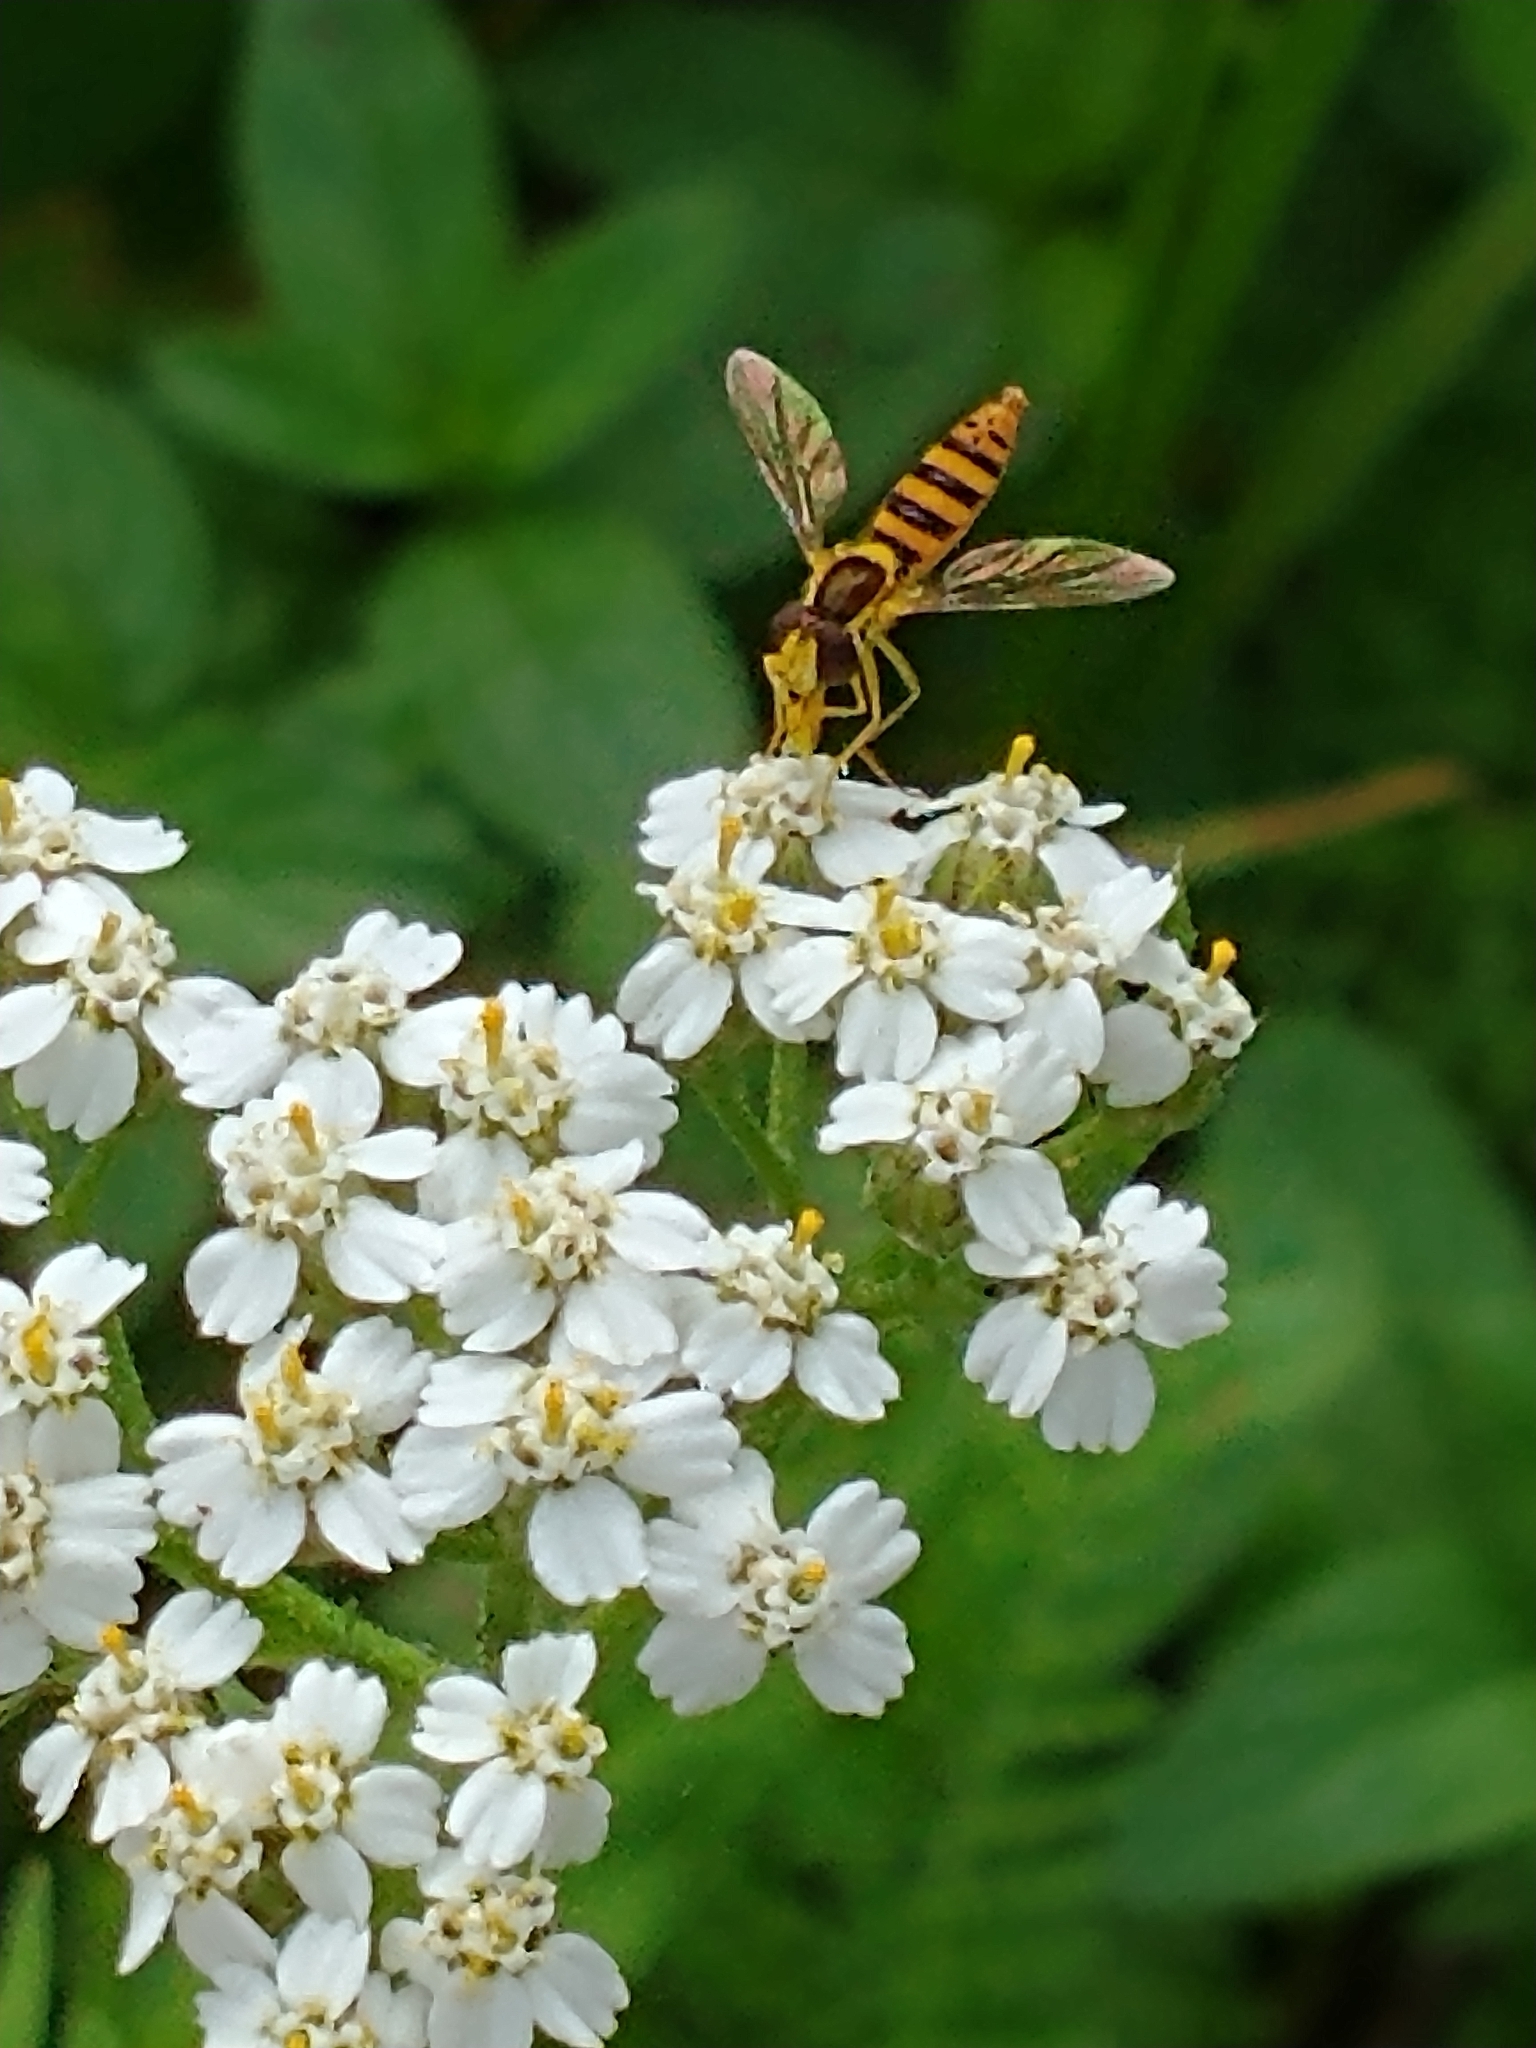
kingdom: Animalia
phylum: Arthropoda
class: Insecta
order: Diptera
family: Syrphidae
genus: Sphaerophoria
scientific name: Sphaerophoria
